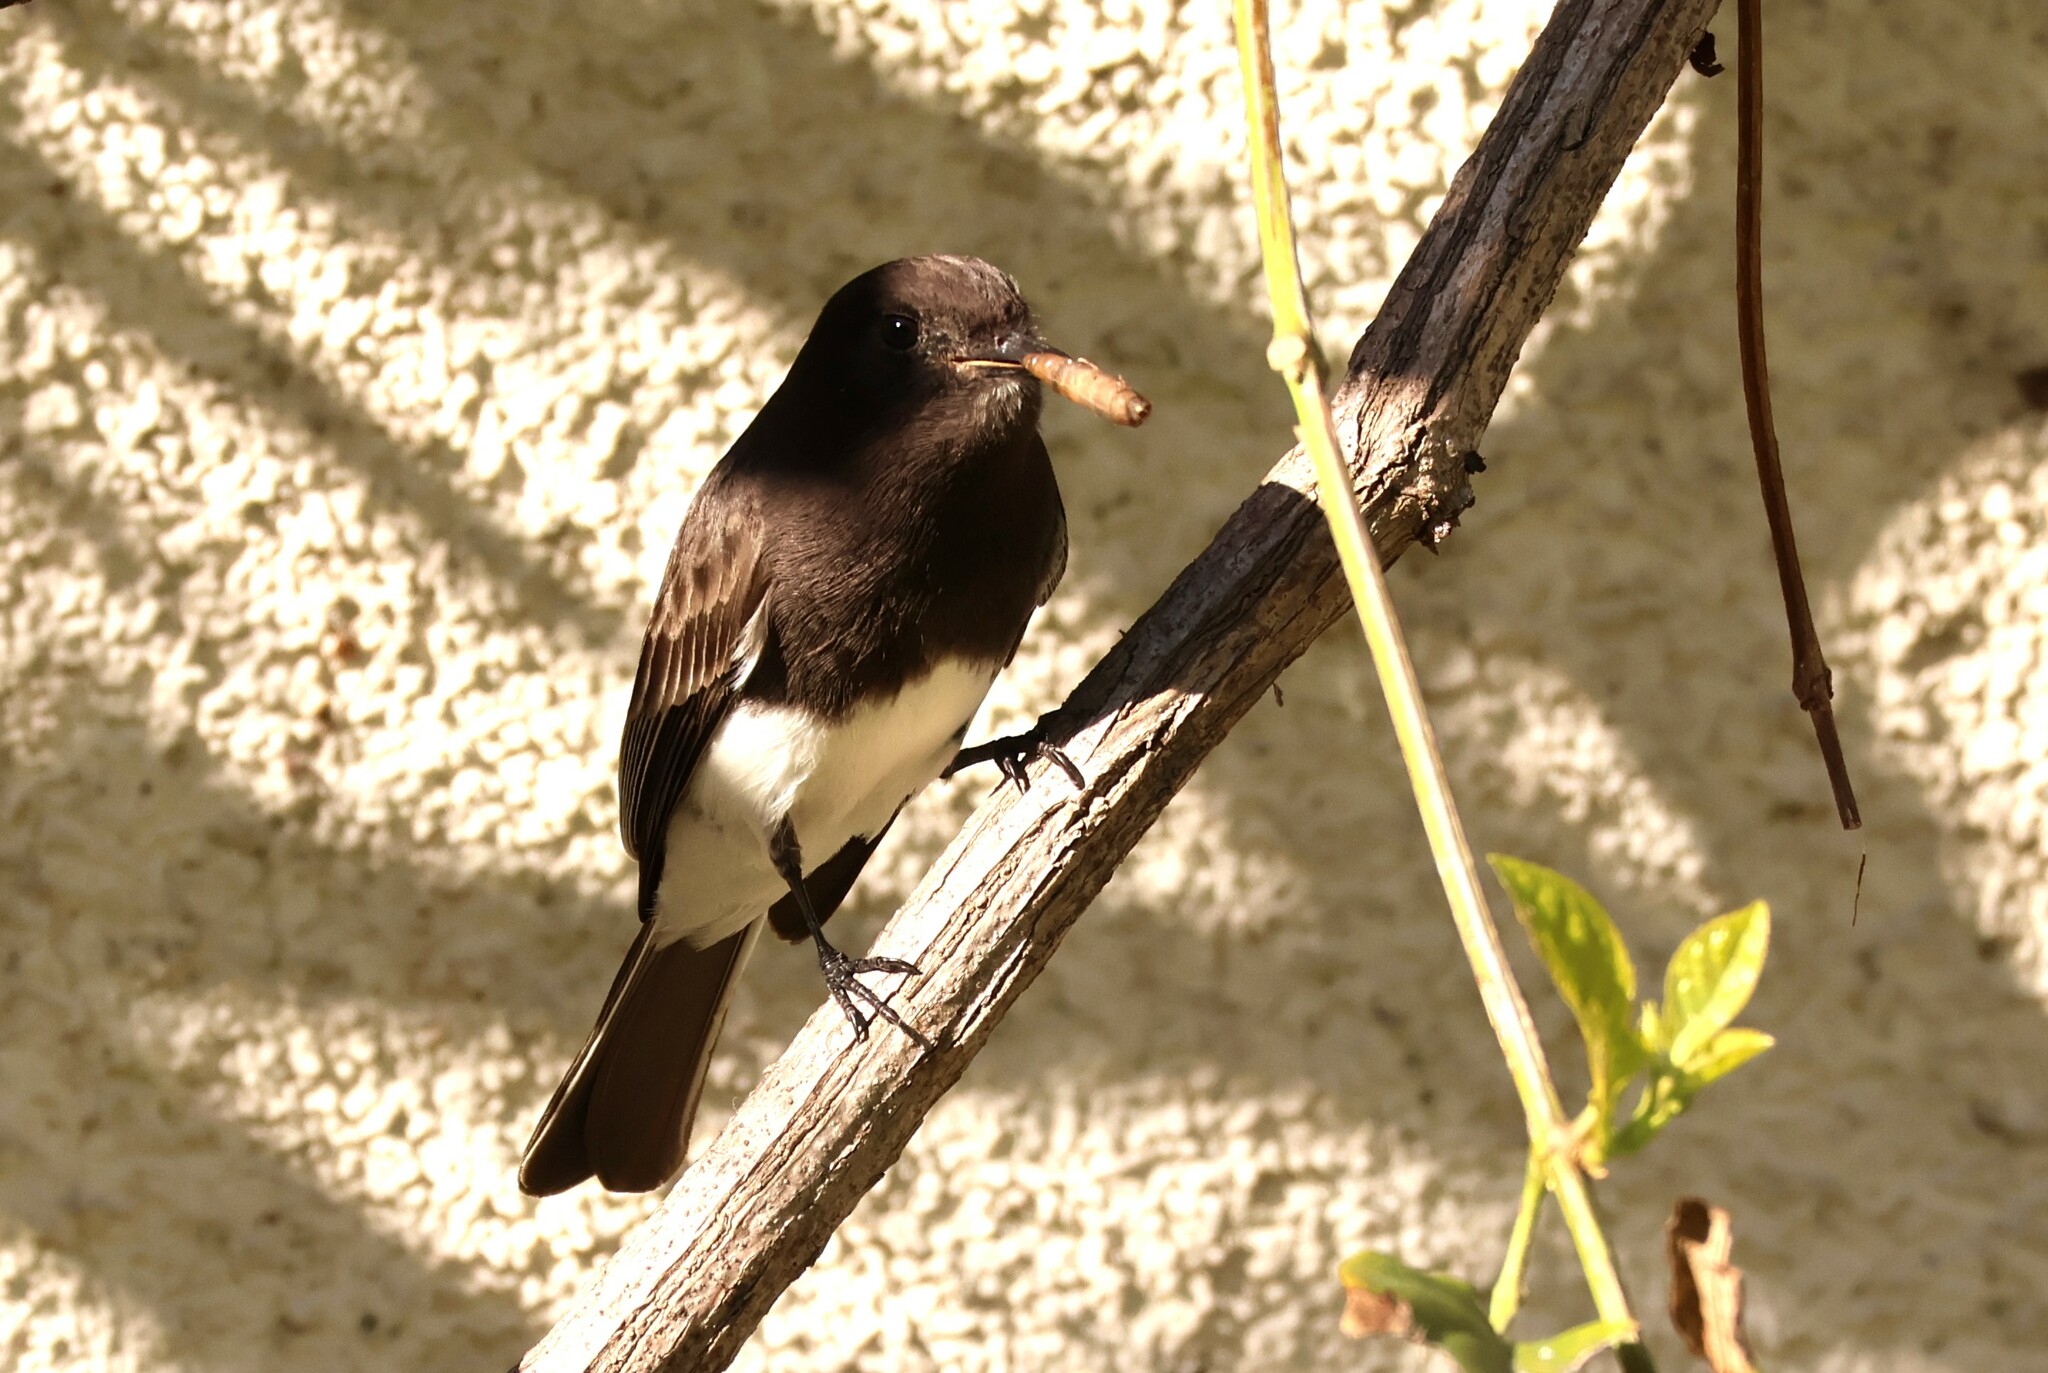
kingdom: Animalia
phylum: Chordata
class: Aves
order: Passeriformes
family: Tyrannidae
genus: Sayornis
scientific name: Sayornis nigricans
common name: Black phoebe
